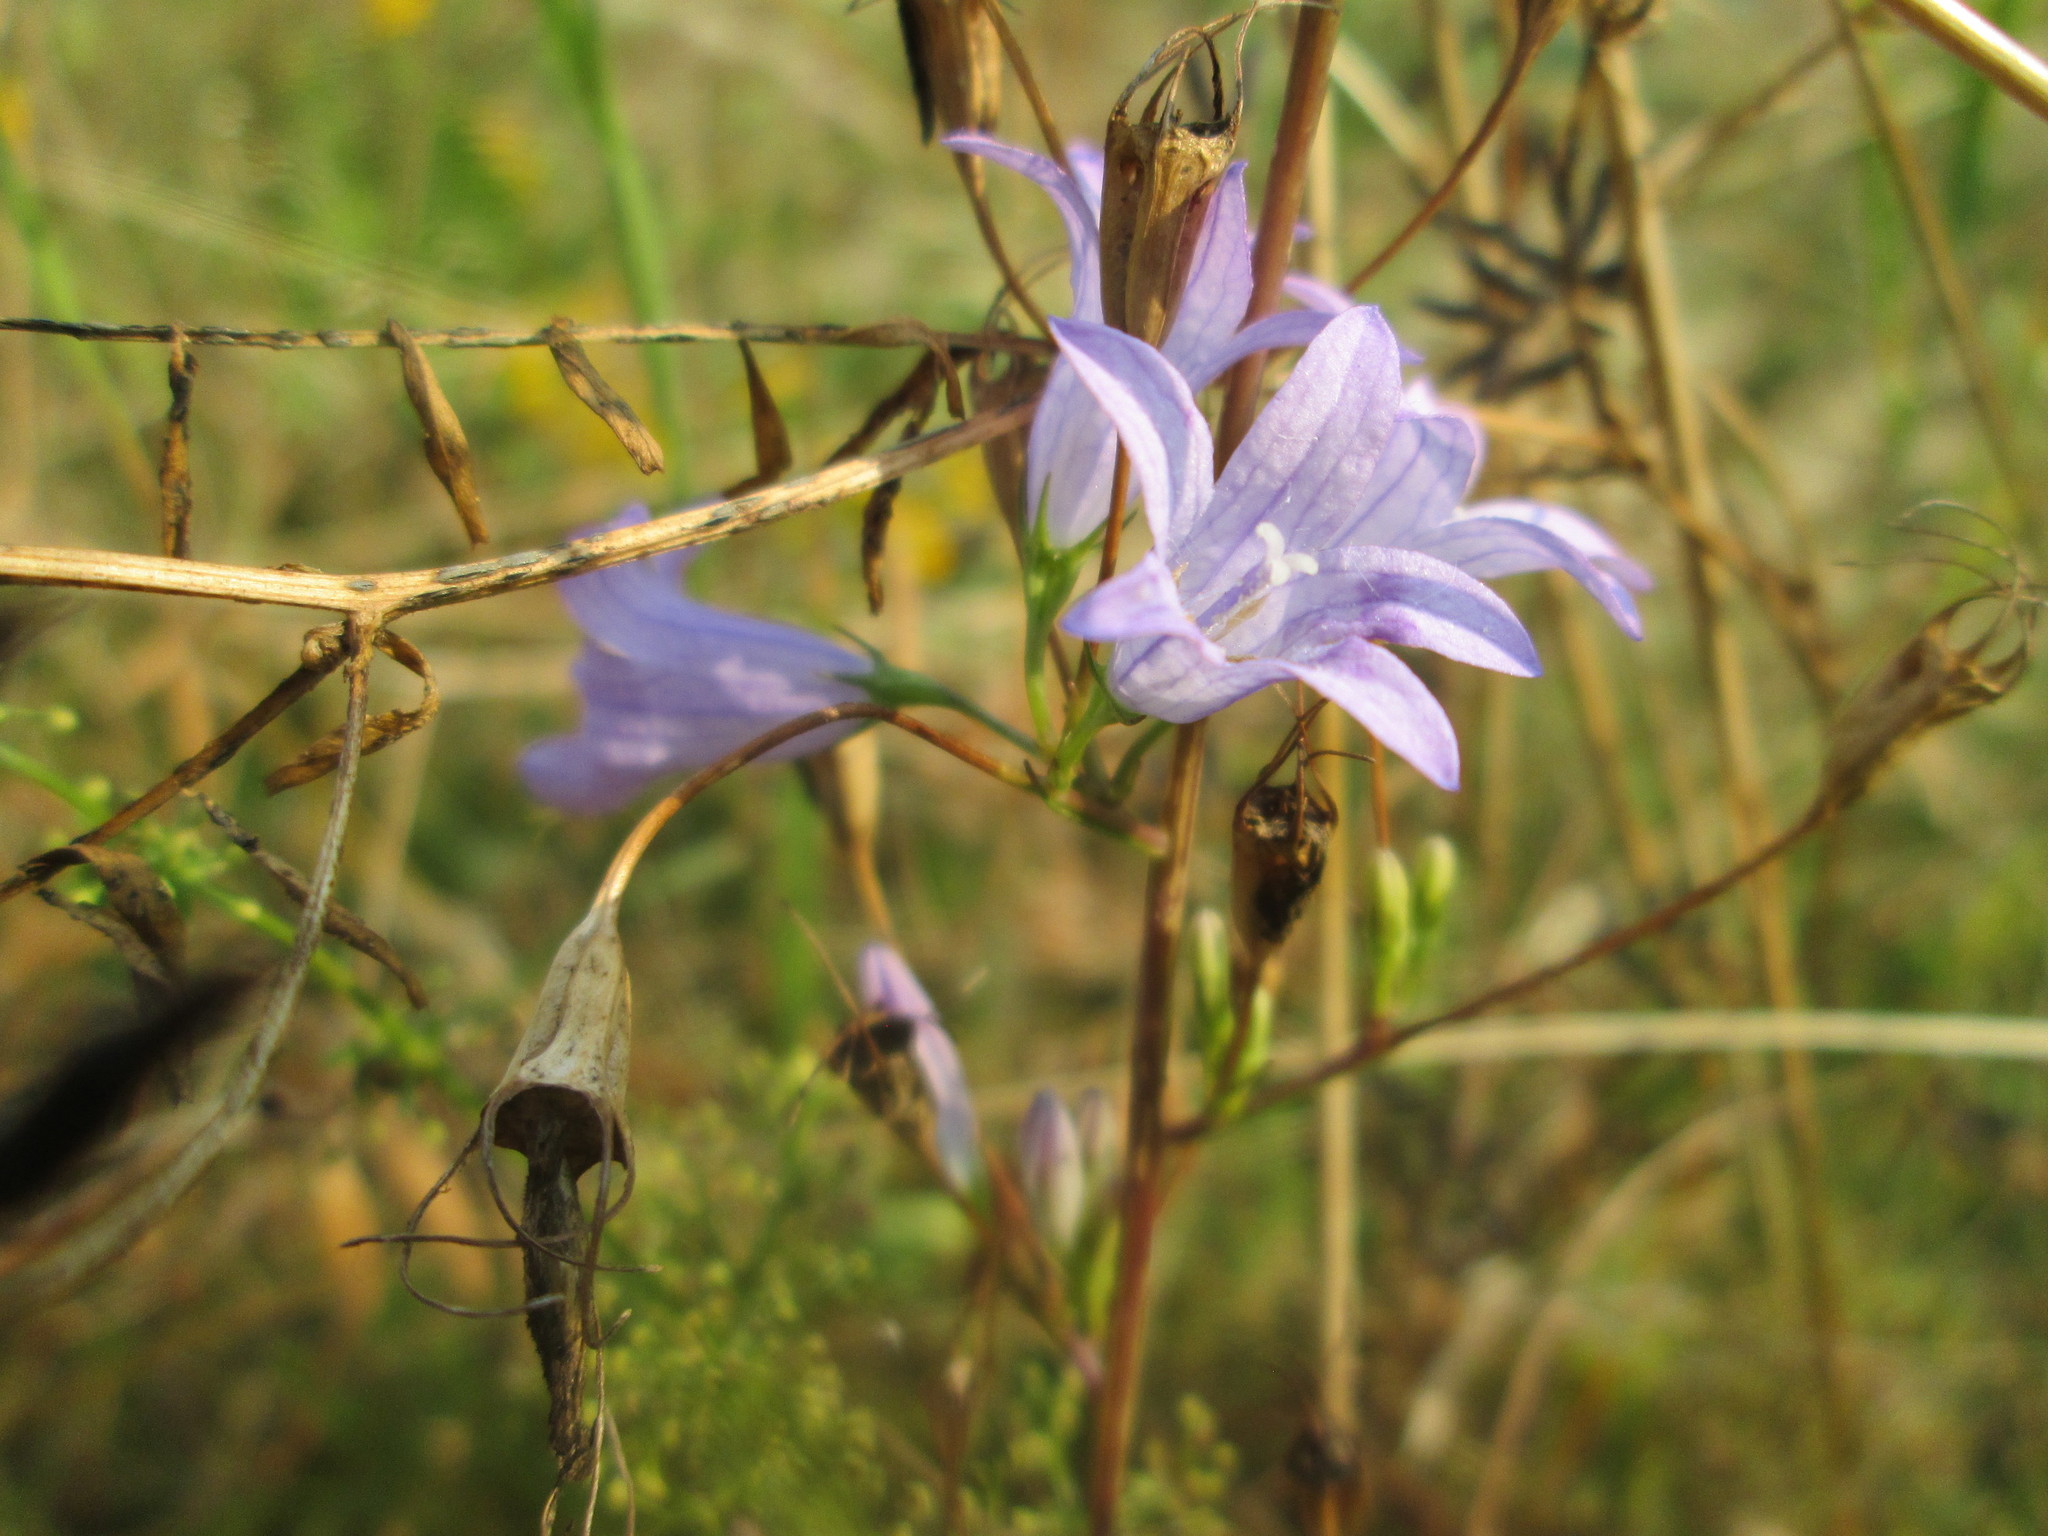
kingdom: Plantae
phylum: Tracheophyta
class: Magnoliopsida
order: Asterales
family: Campanulaceae
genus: Campanula
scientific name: Campanula rapunculus
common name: Rampion bellflower
